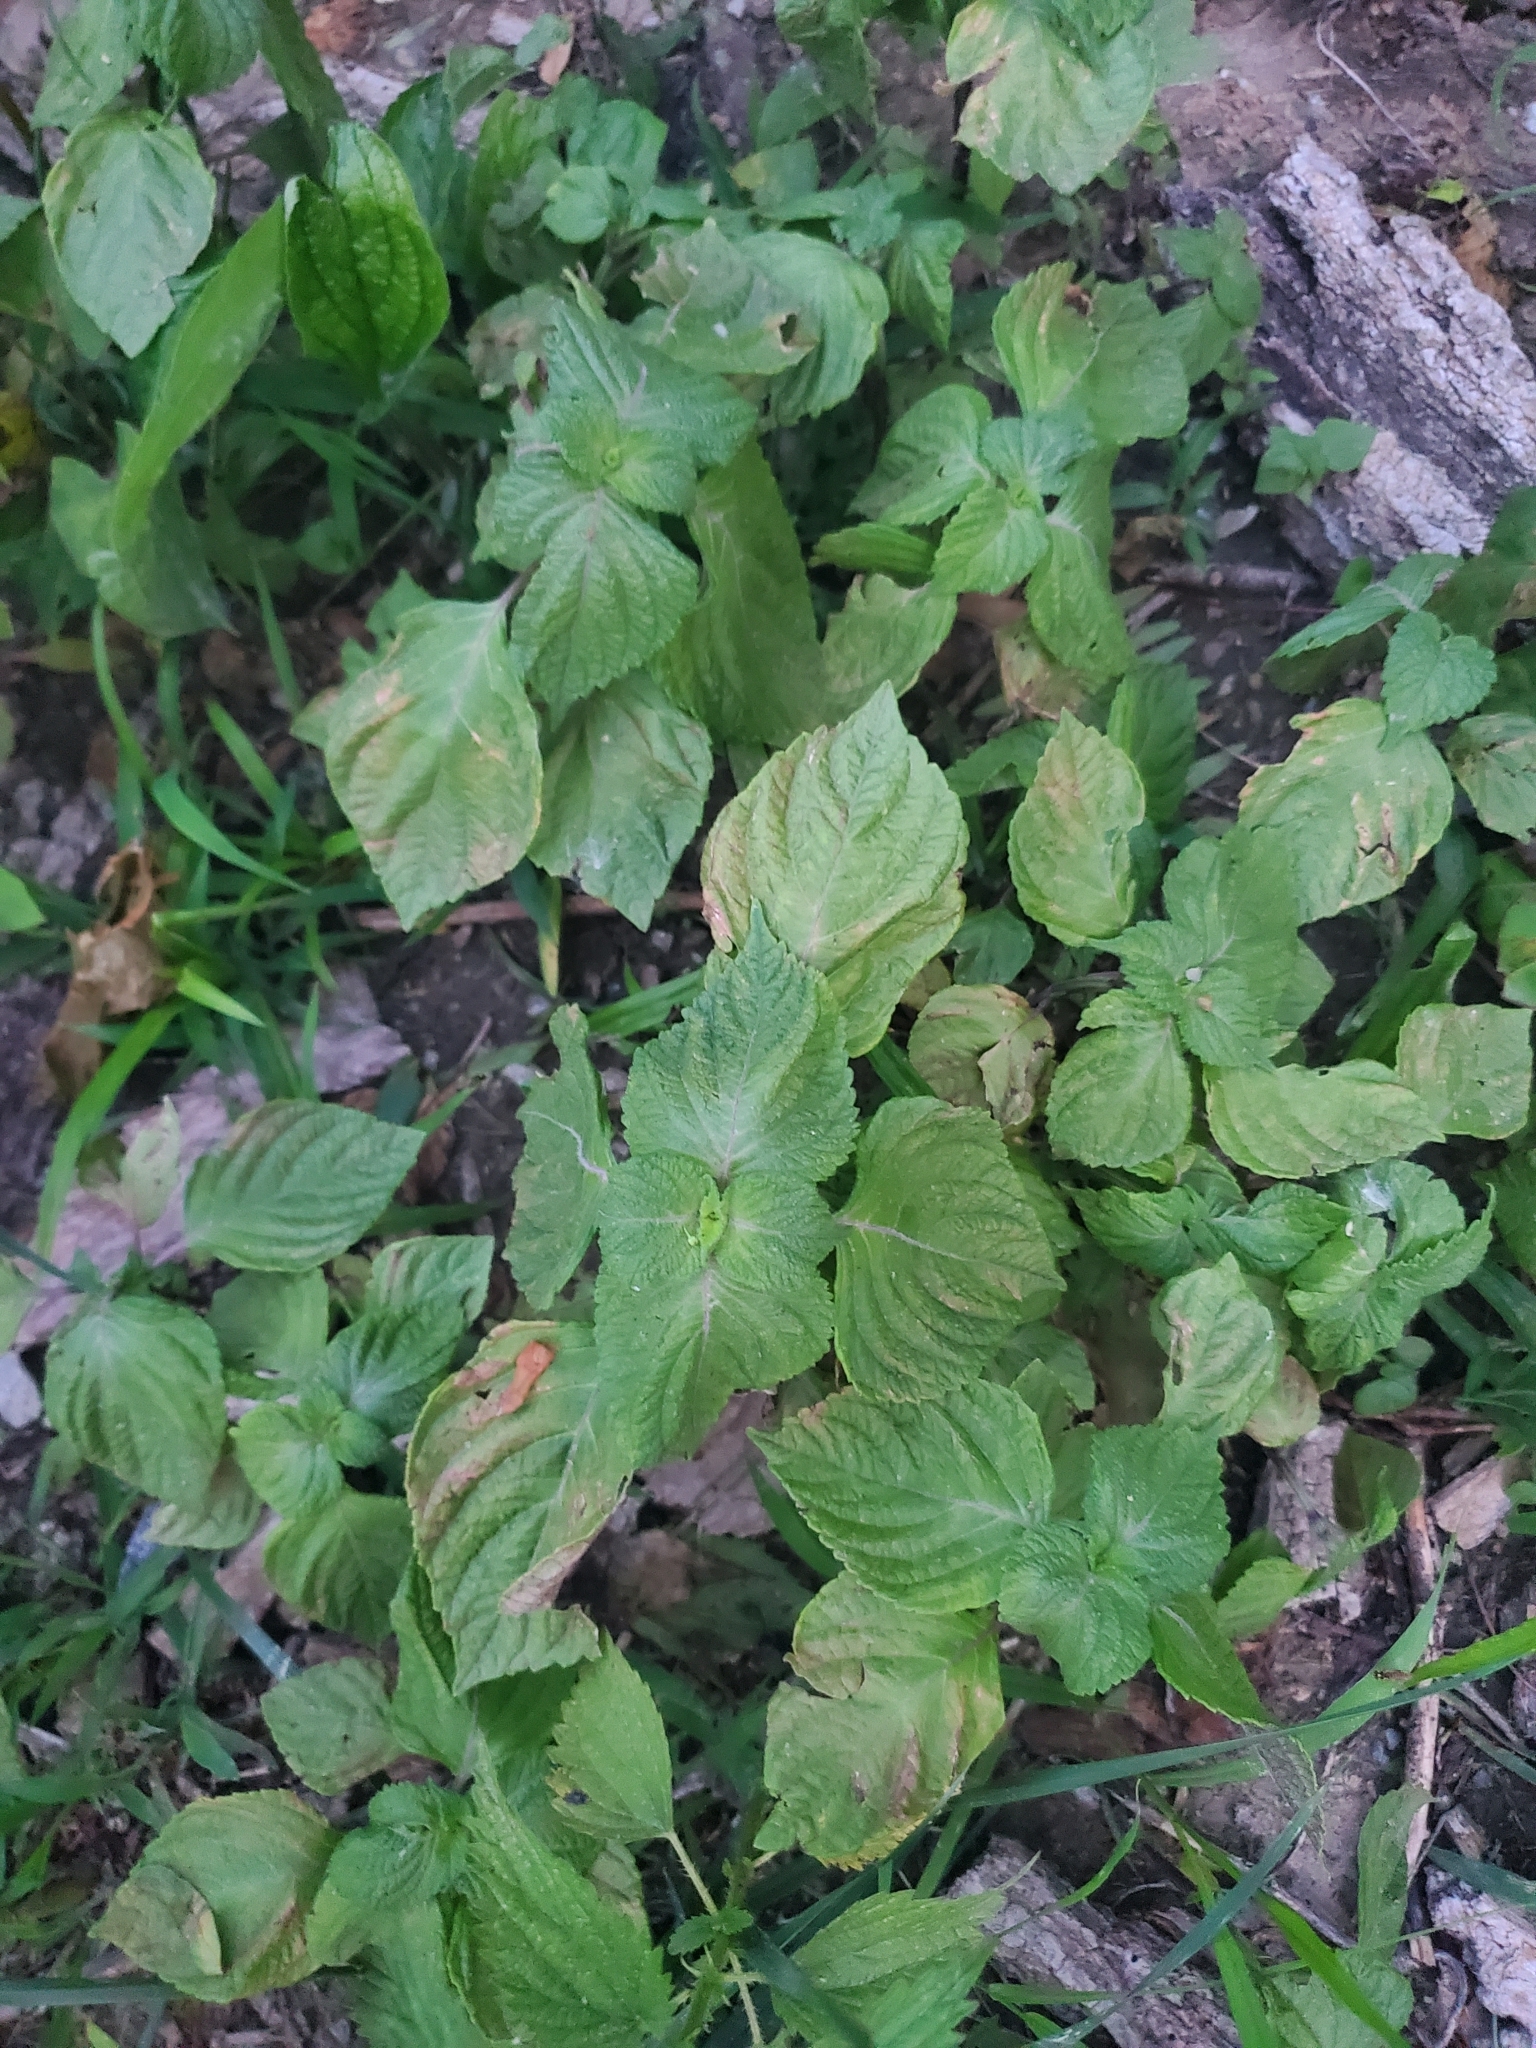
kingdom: Plantae
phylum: Tracheophyta
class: Magnoliopsida
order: Lamiales
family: Lamiaceae
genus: Perilla
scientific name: Perilla frutescens
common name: Perilla
